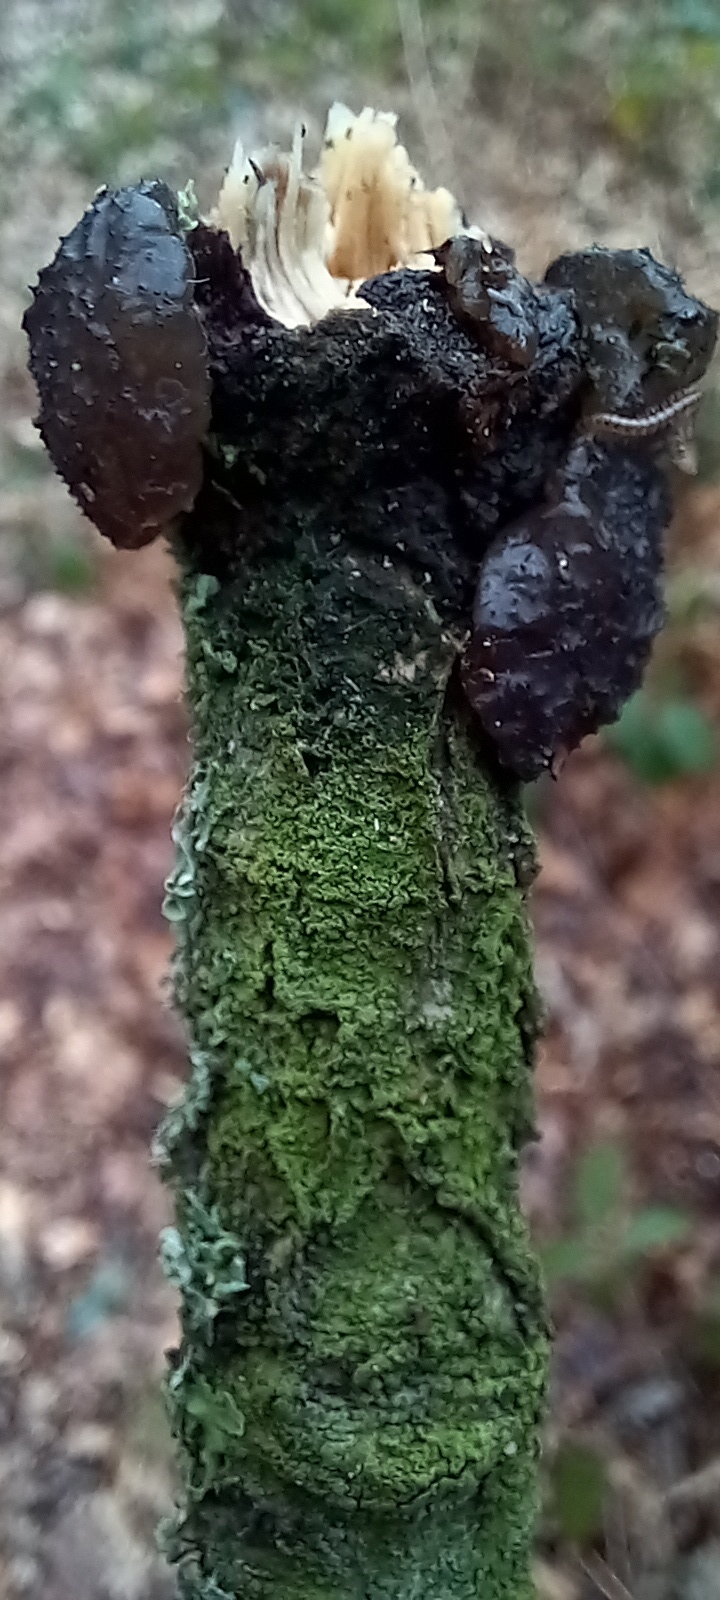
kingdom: Fungi
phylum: Basidiomycota
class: Agaricomycetes
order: Auriculariales
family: Auriculariaceae
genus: Exidia
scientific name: Exidia glandulosa
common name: Witches' butter
